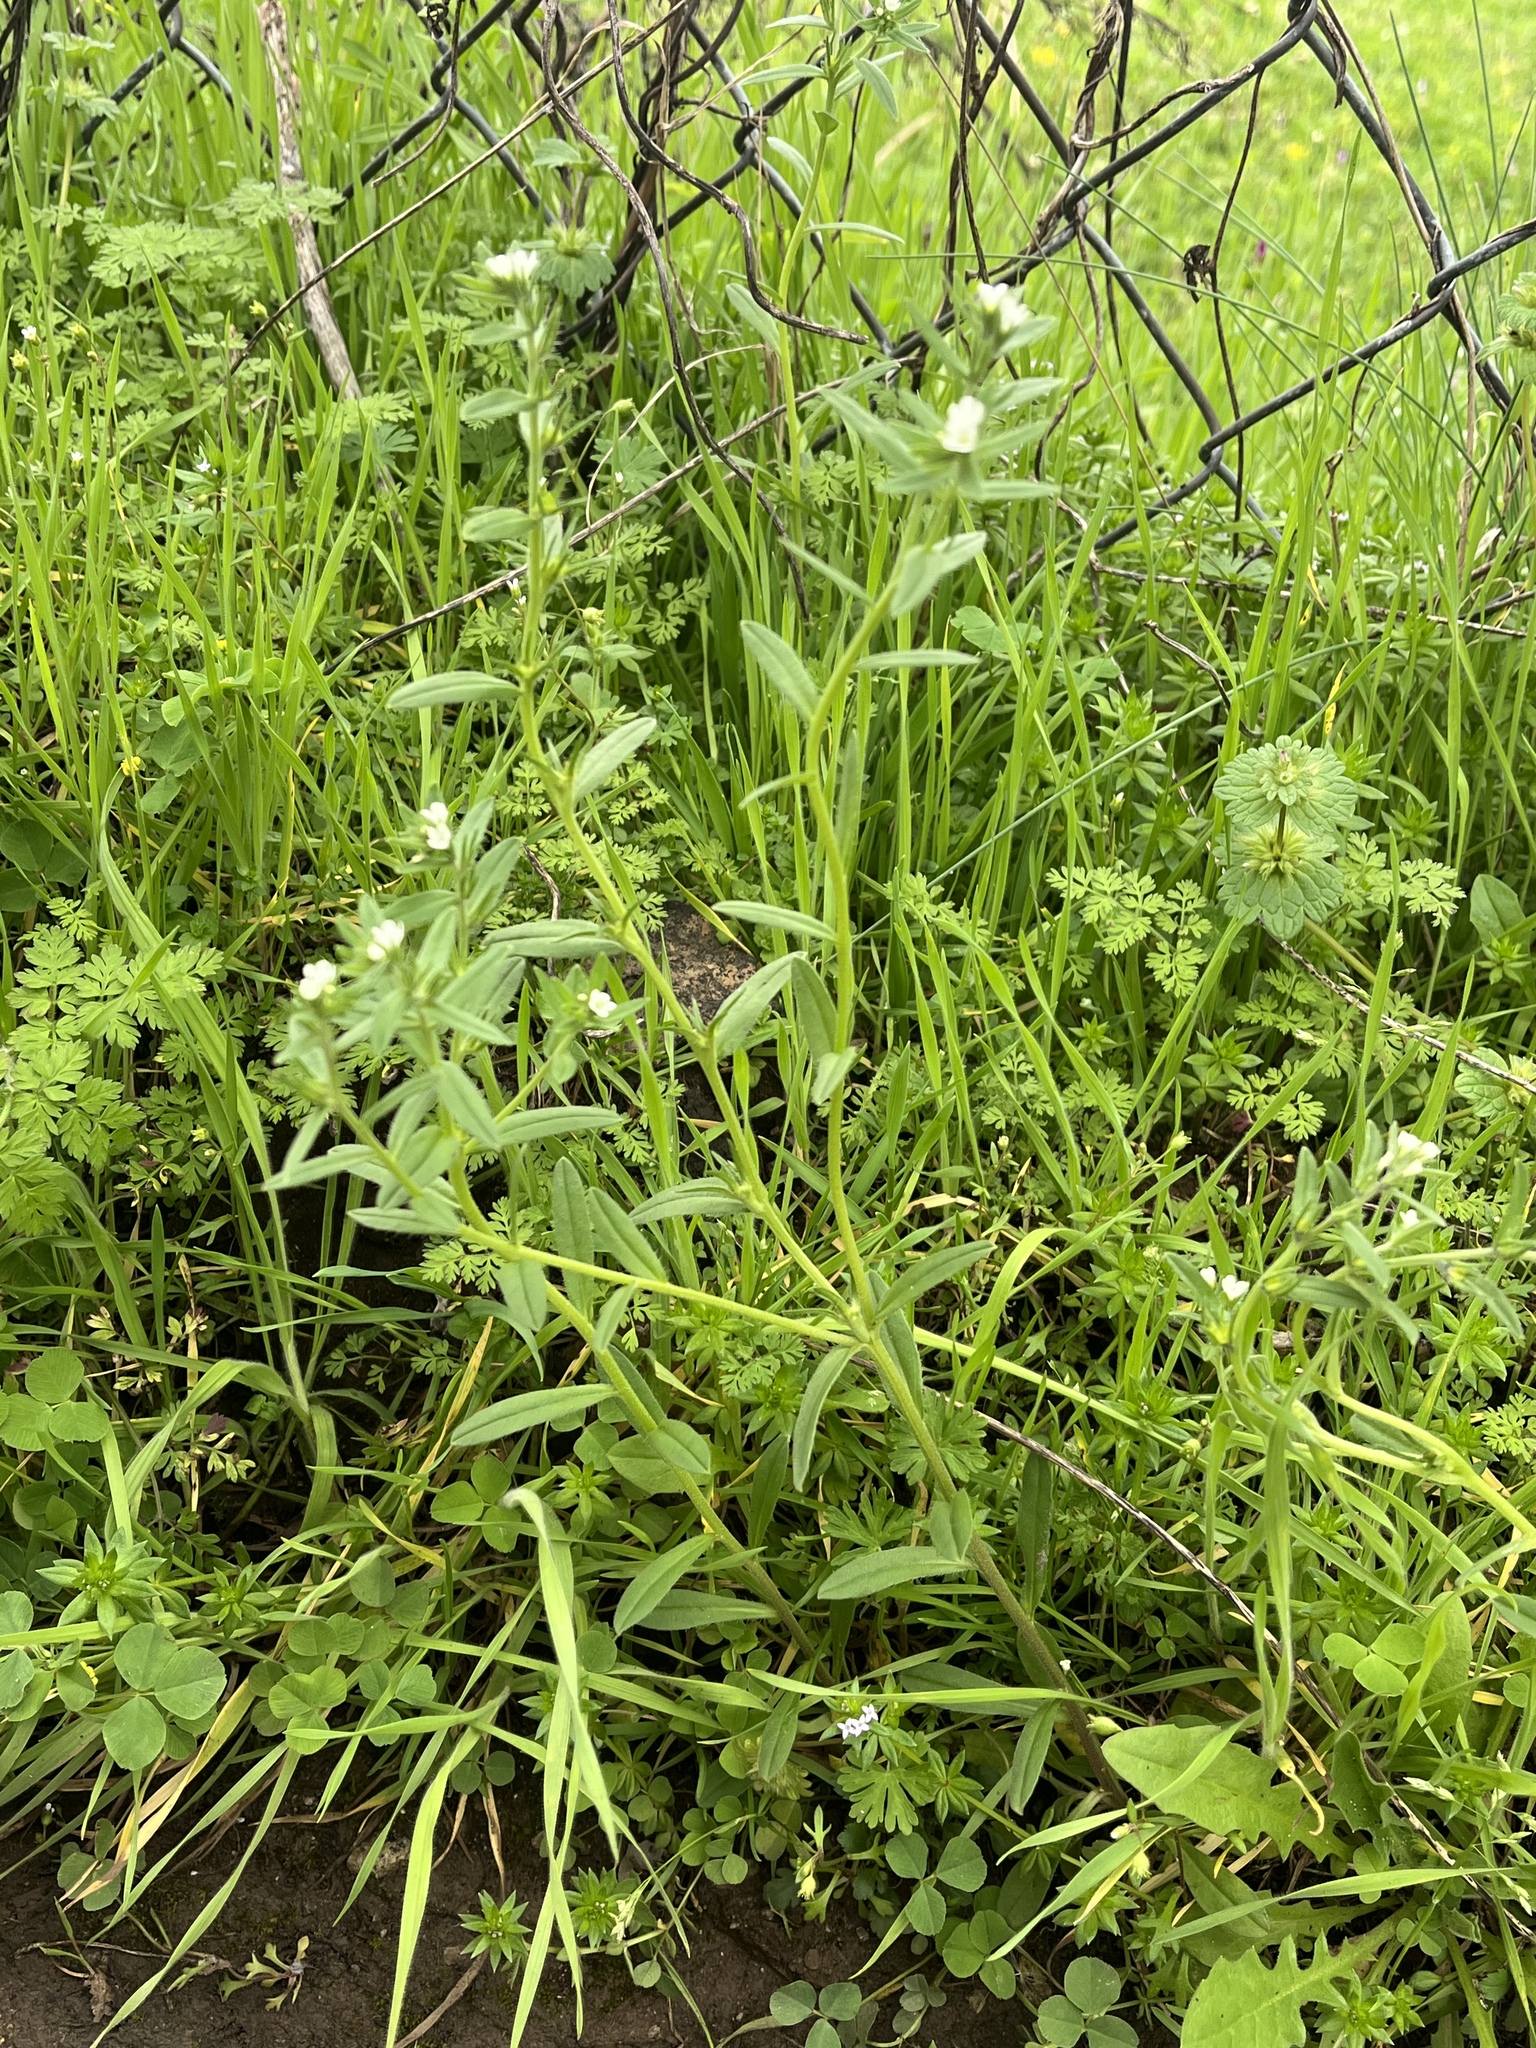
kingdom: Plantae
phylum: Tracheophyta
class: Magnoliopsida
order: Boraginales
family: Boraginaceae
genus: Buglossoides
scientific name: Buglossoides arvensis
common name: Corn gromwell
